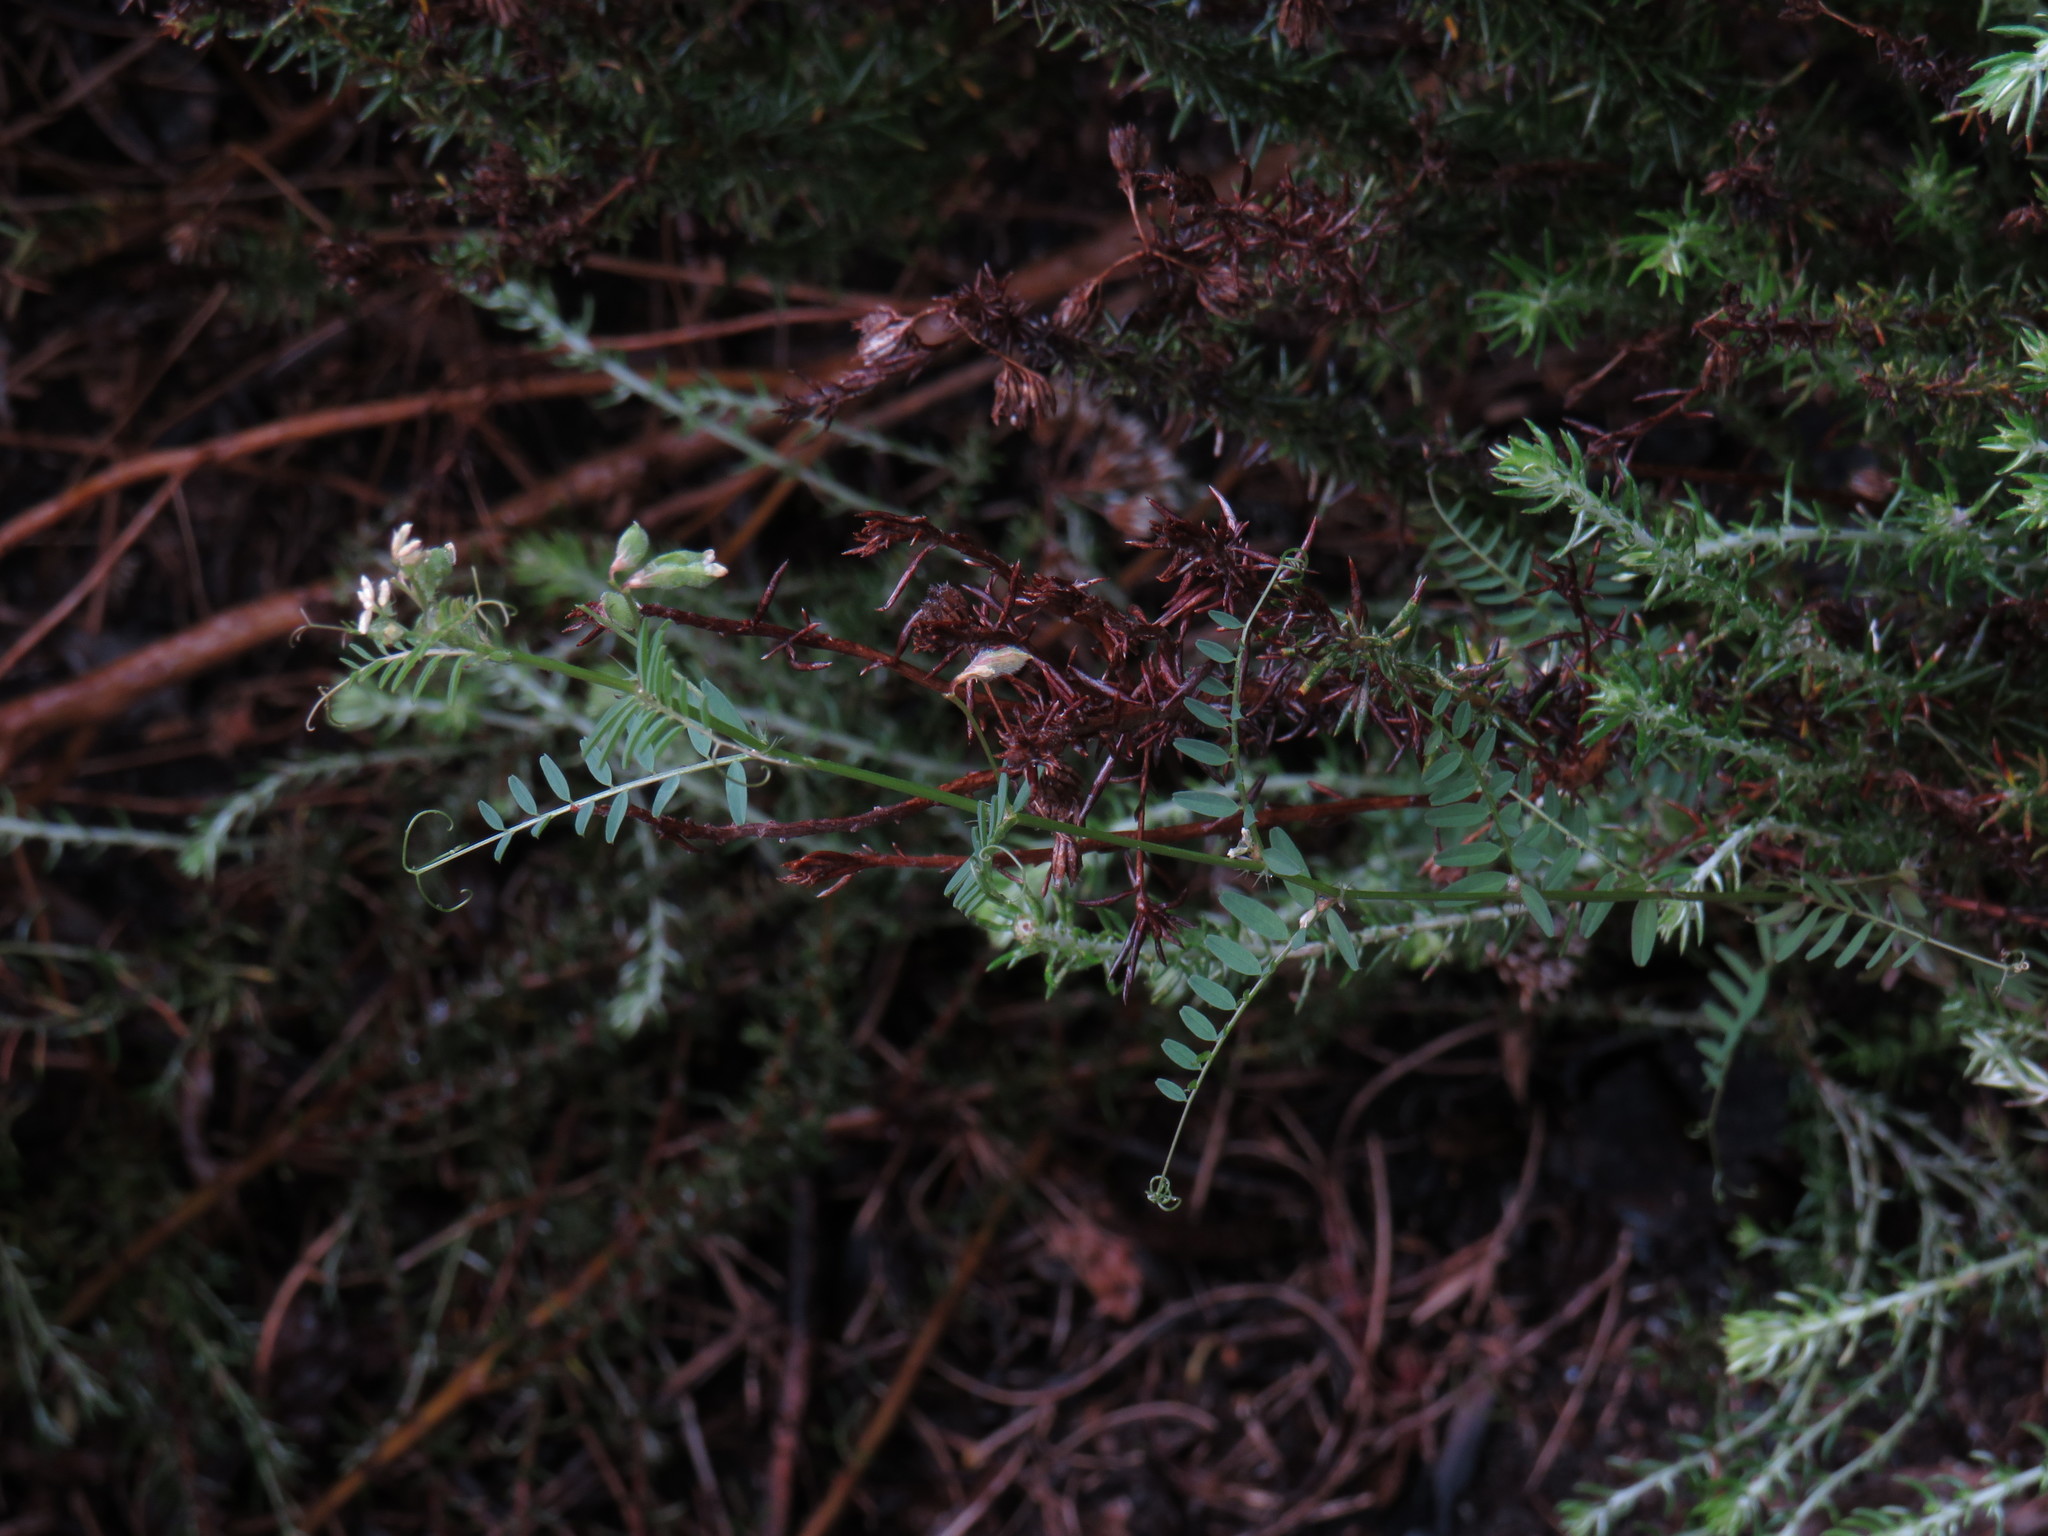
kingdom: Plantae
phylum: Tracheophyta
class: Magnoliopsida
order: Fabales
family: Fabaceae
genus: Vicia
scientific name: Vicia hirsuta
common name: Tiny vetch
